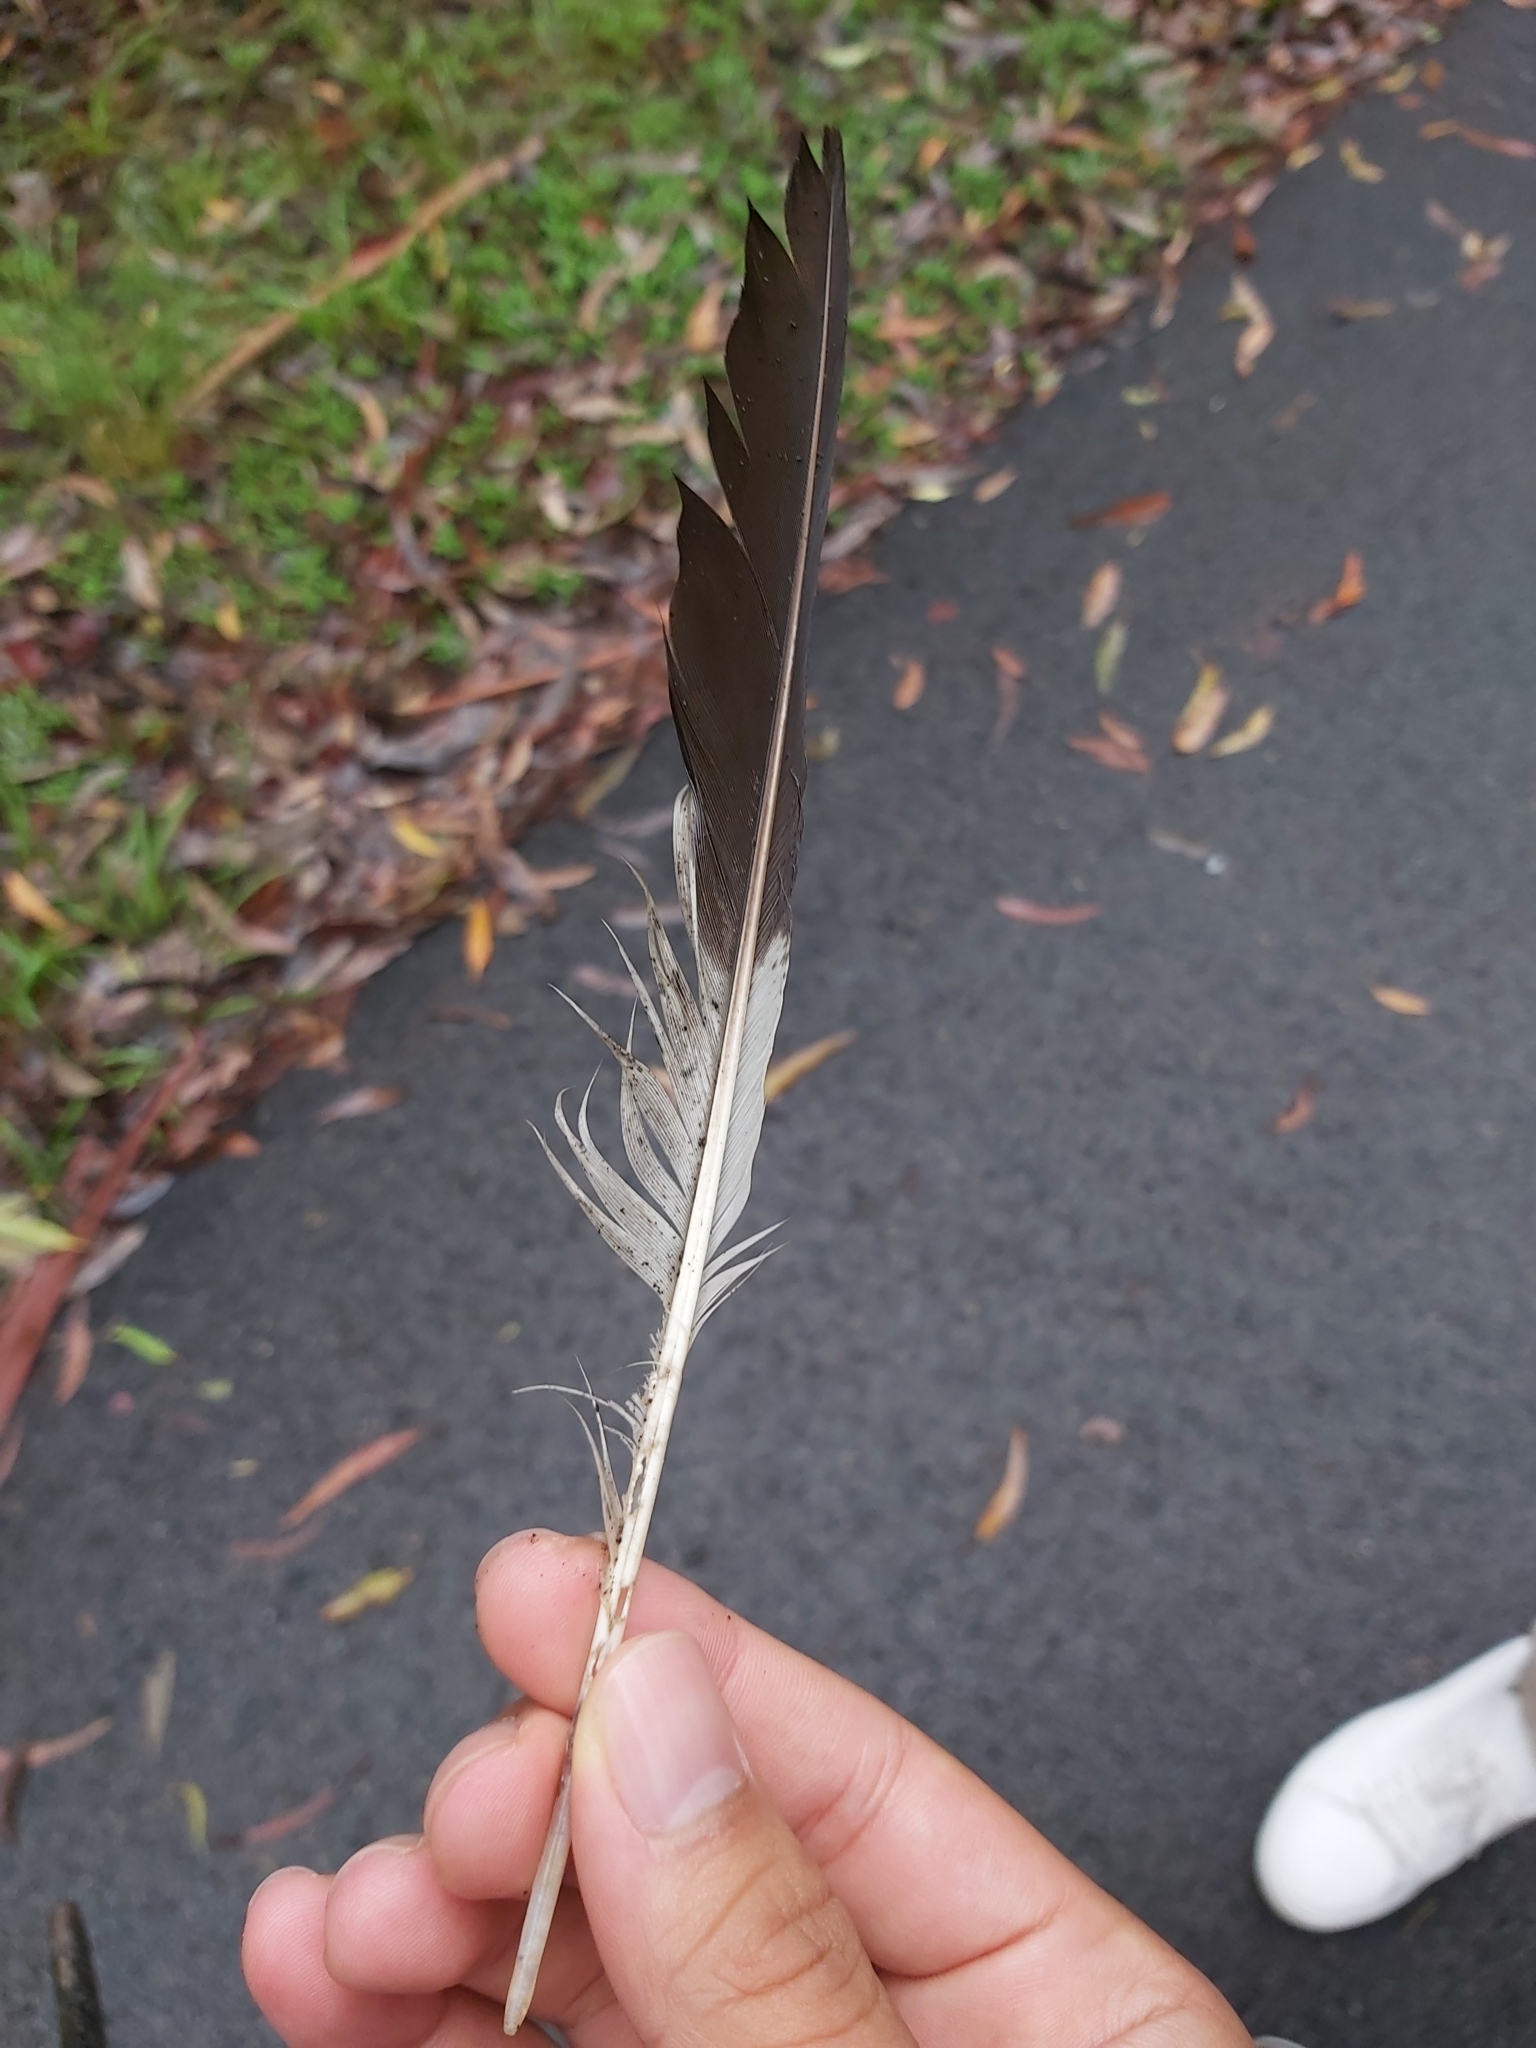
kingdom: Animalia
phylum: Chordata
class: Aves
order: Coraciiformes
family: Alcedinidae
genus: Dacelo
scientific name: Dacelo novaeguineae
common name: Laughing kookaburra
